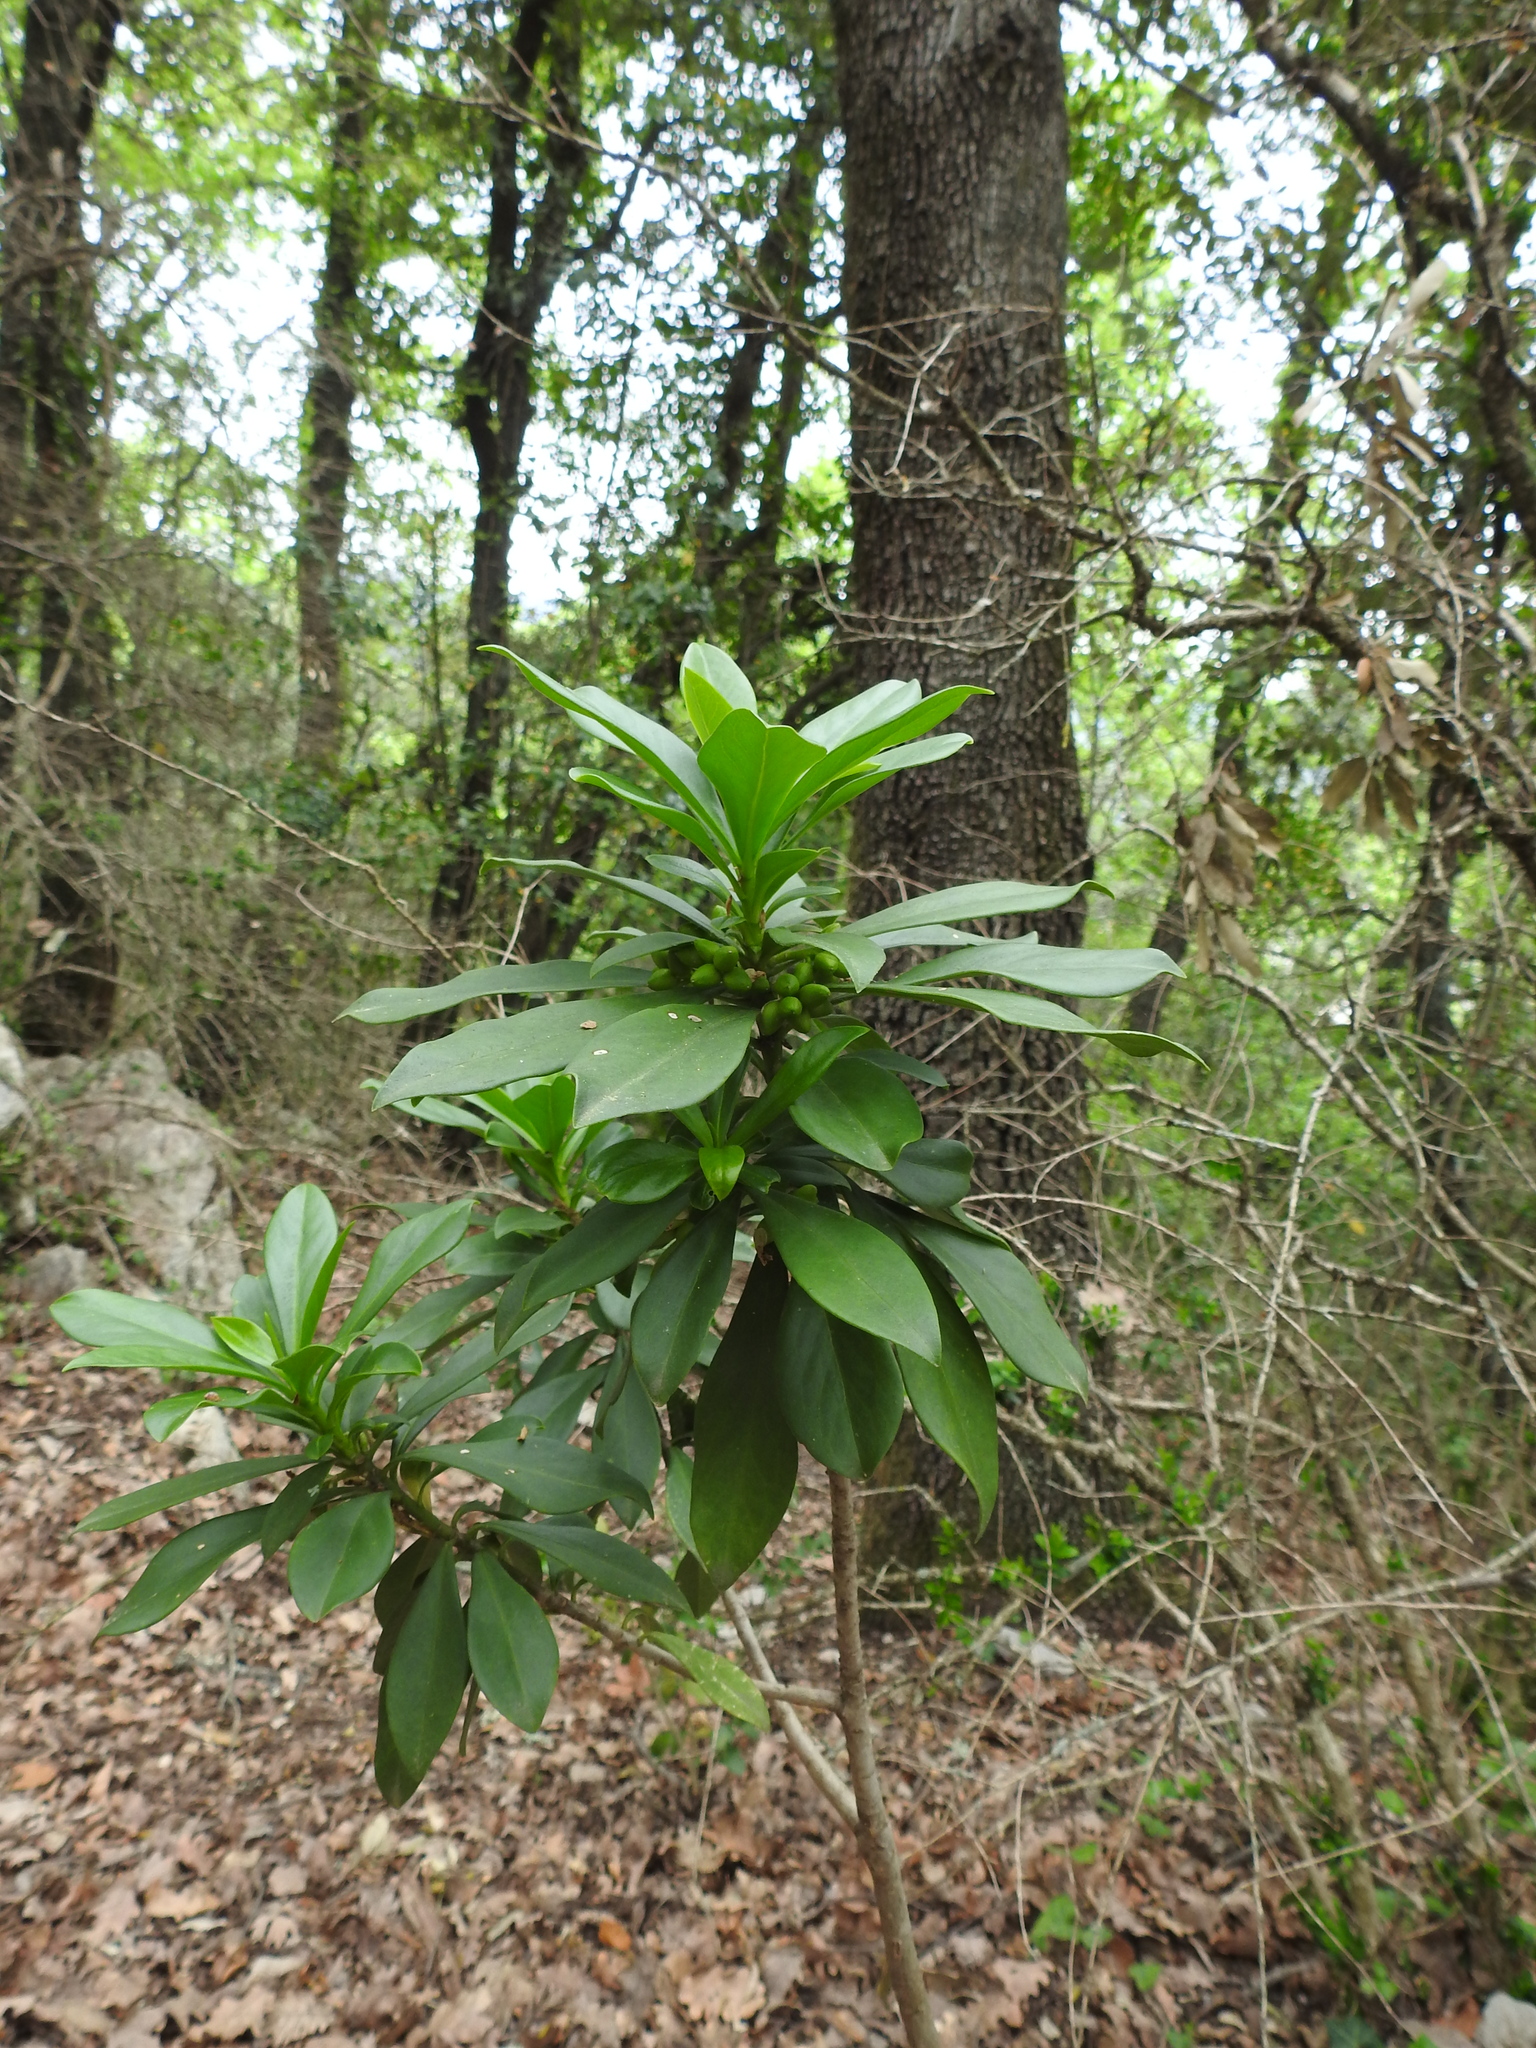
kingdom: Plantae
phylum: Tracheophyta
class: Magnoliopsida
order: Malvales
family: Thymelaeaceae
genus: Daphne
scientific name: Daphne laureola
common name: Spurge-laurel
